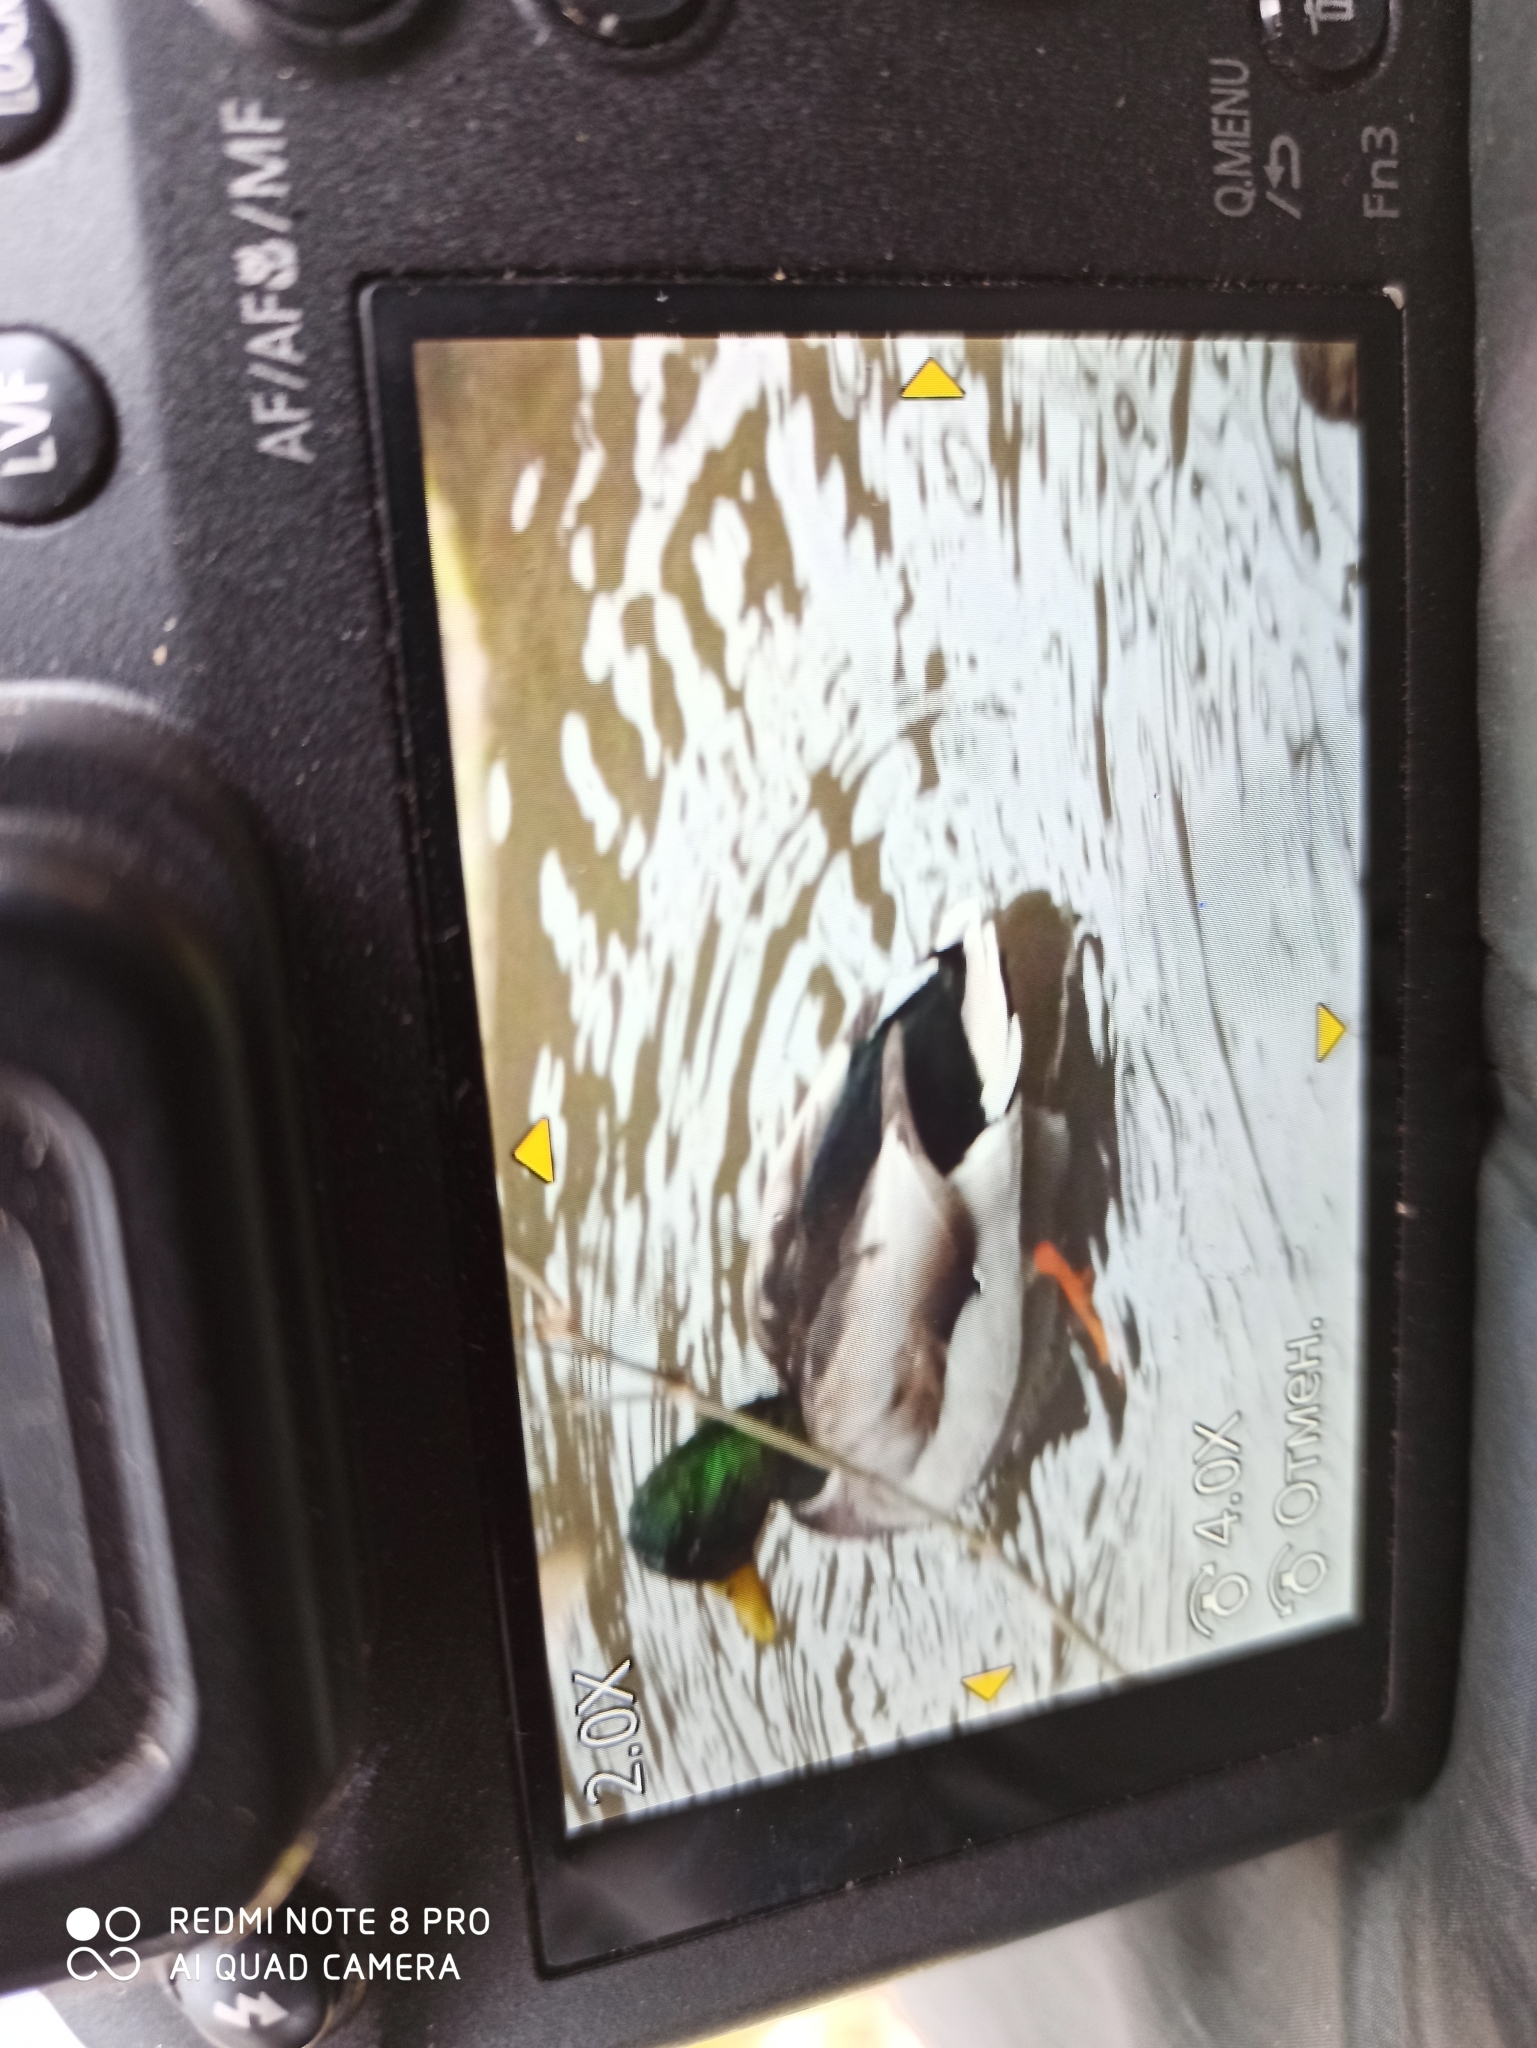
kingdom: Animalia
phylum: Chordata
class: Aves
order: Anseriformes
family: Anatidae
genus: Anas
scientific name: Anas platyrhynchos
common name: Mallard
